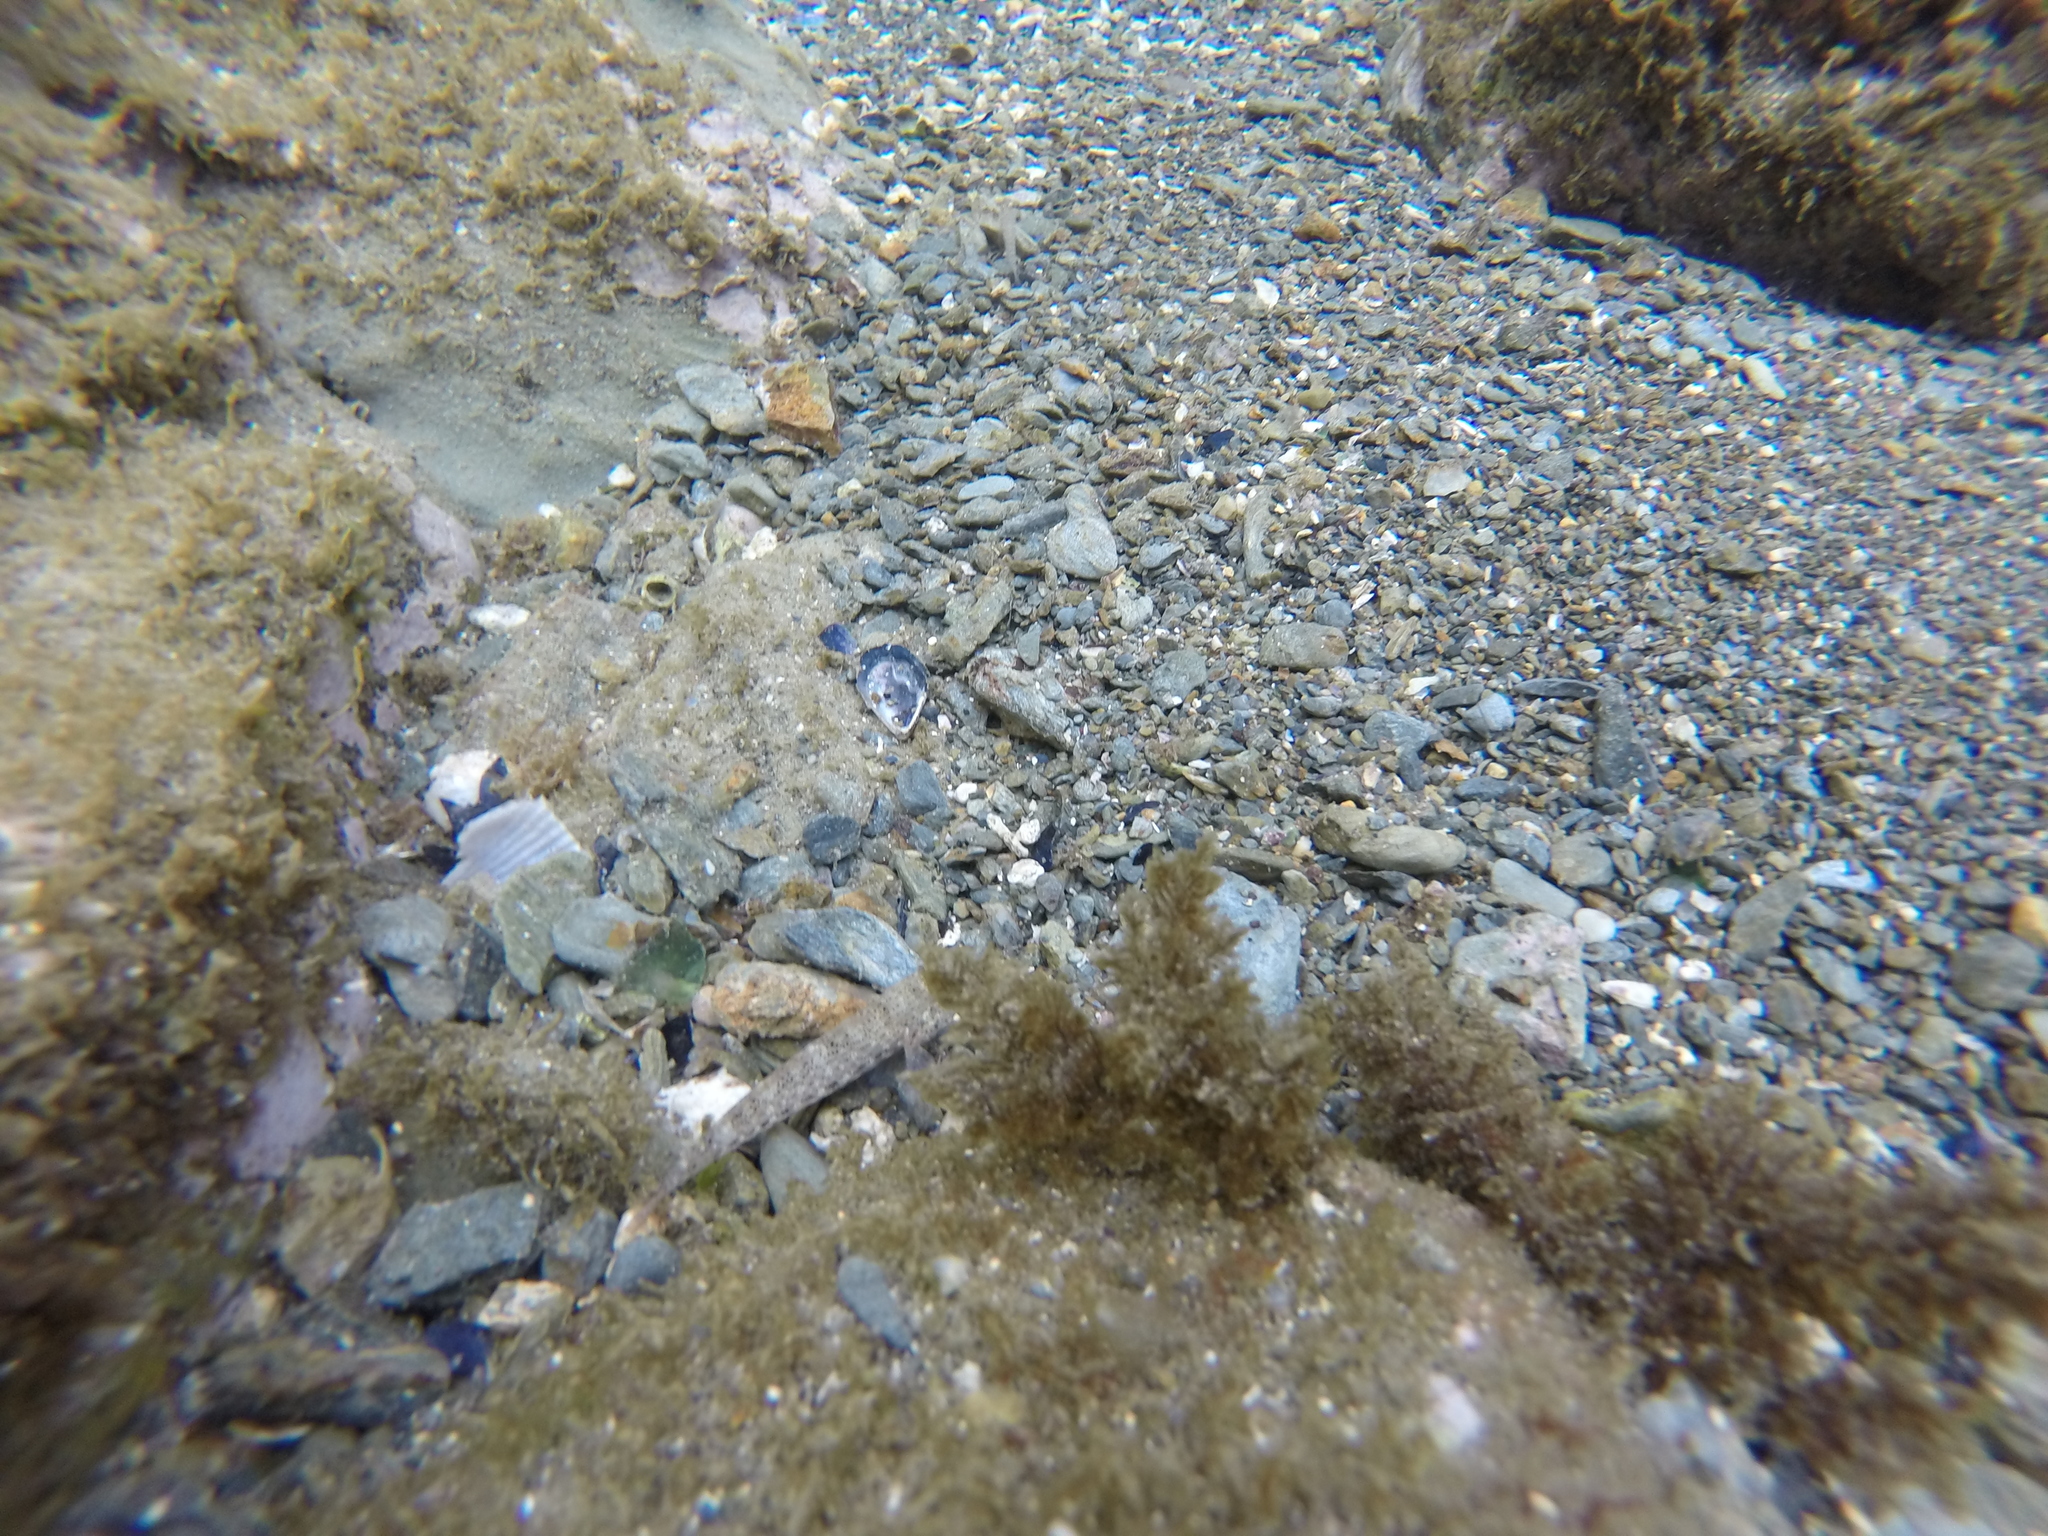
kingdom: Animalia
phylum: Chordata
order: Perciformes
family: Gobiidae
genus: Gobius
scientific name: Gobius incognitus
